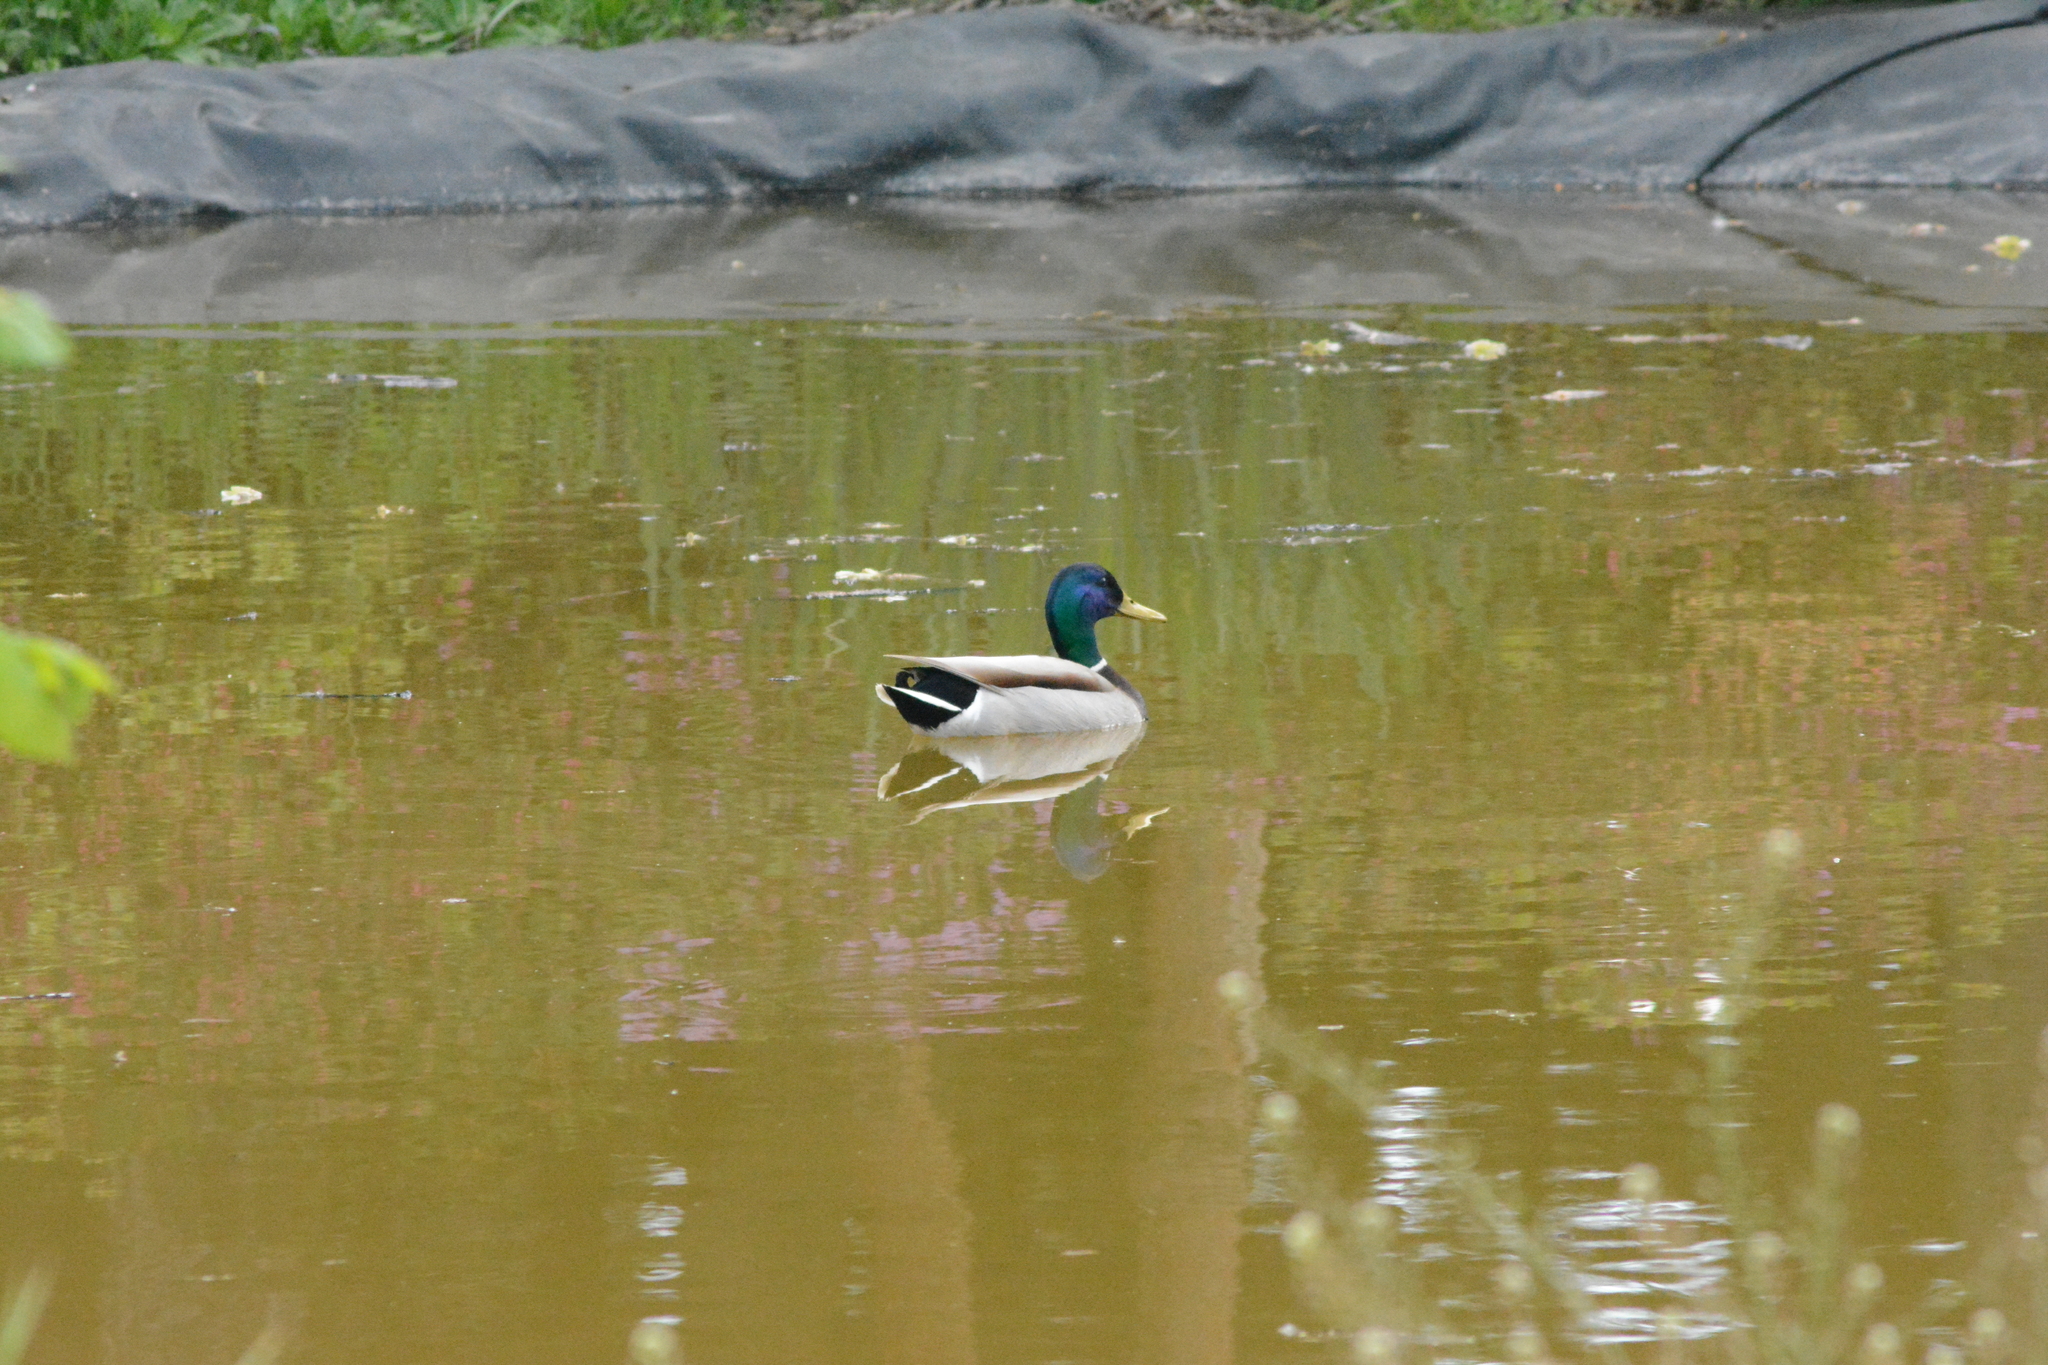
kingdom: Animalia
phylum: Chordata
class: Aves
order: Anseriformes
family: Anatidae
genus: Anas
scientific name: Anas platyrhynchos
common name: Mallard
